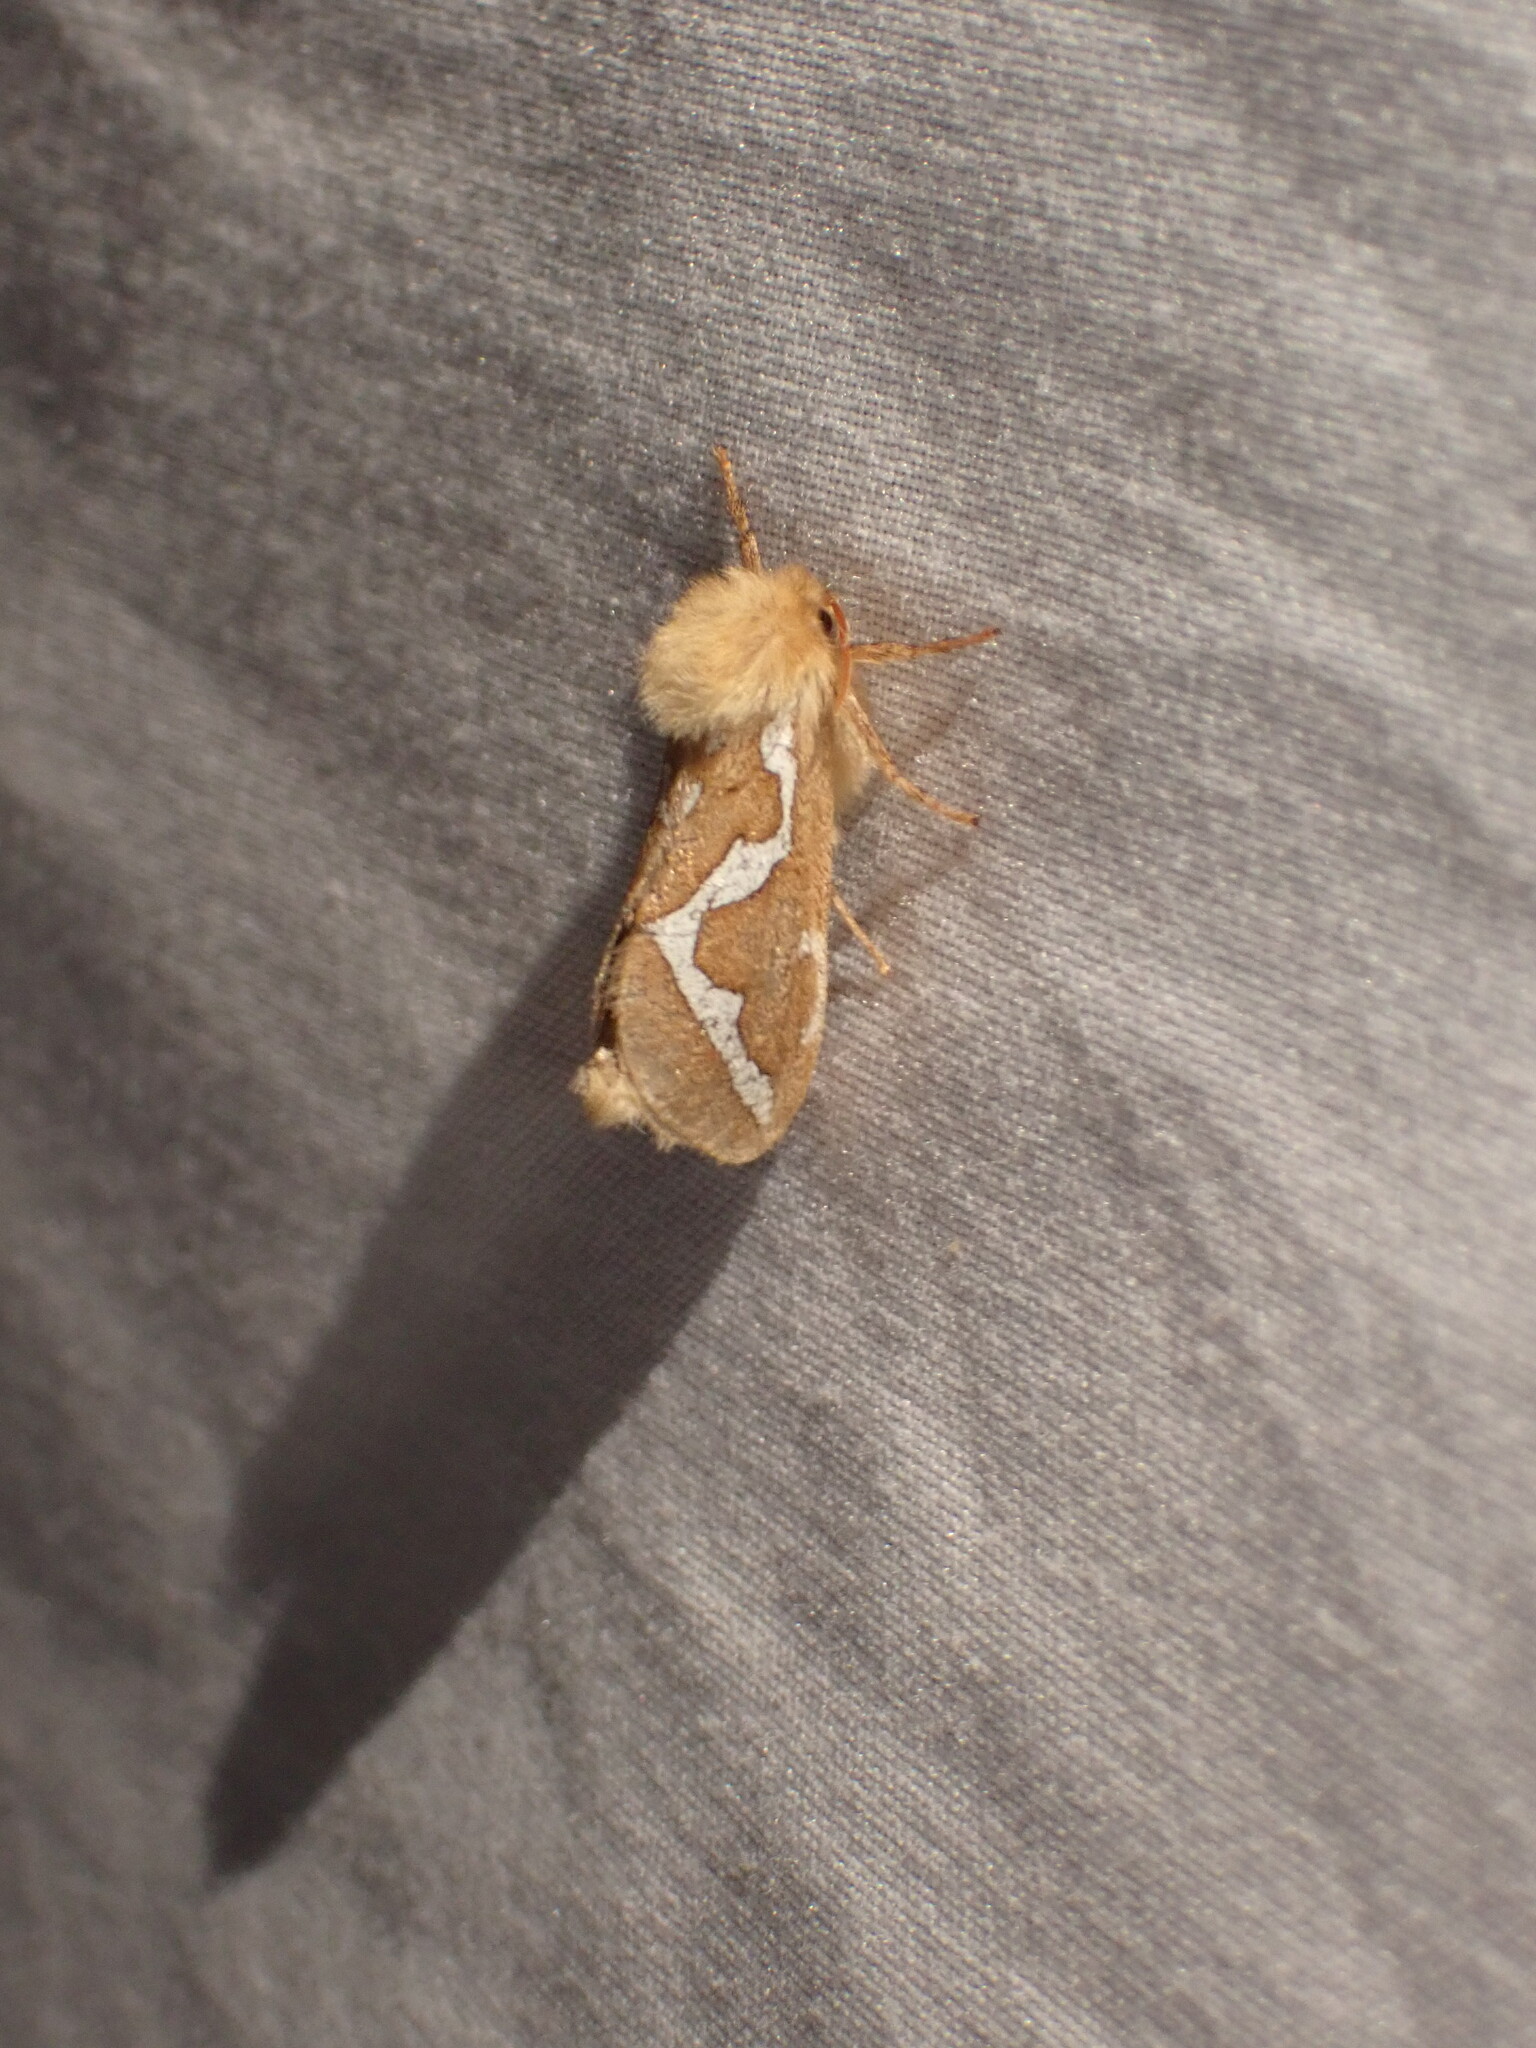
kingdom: Animalia
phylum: Arthropoda
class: Insecta
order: Lepidoptera
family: Hepialidae
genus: Gazoryctra
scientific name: Gazoryctra novigannus
